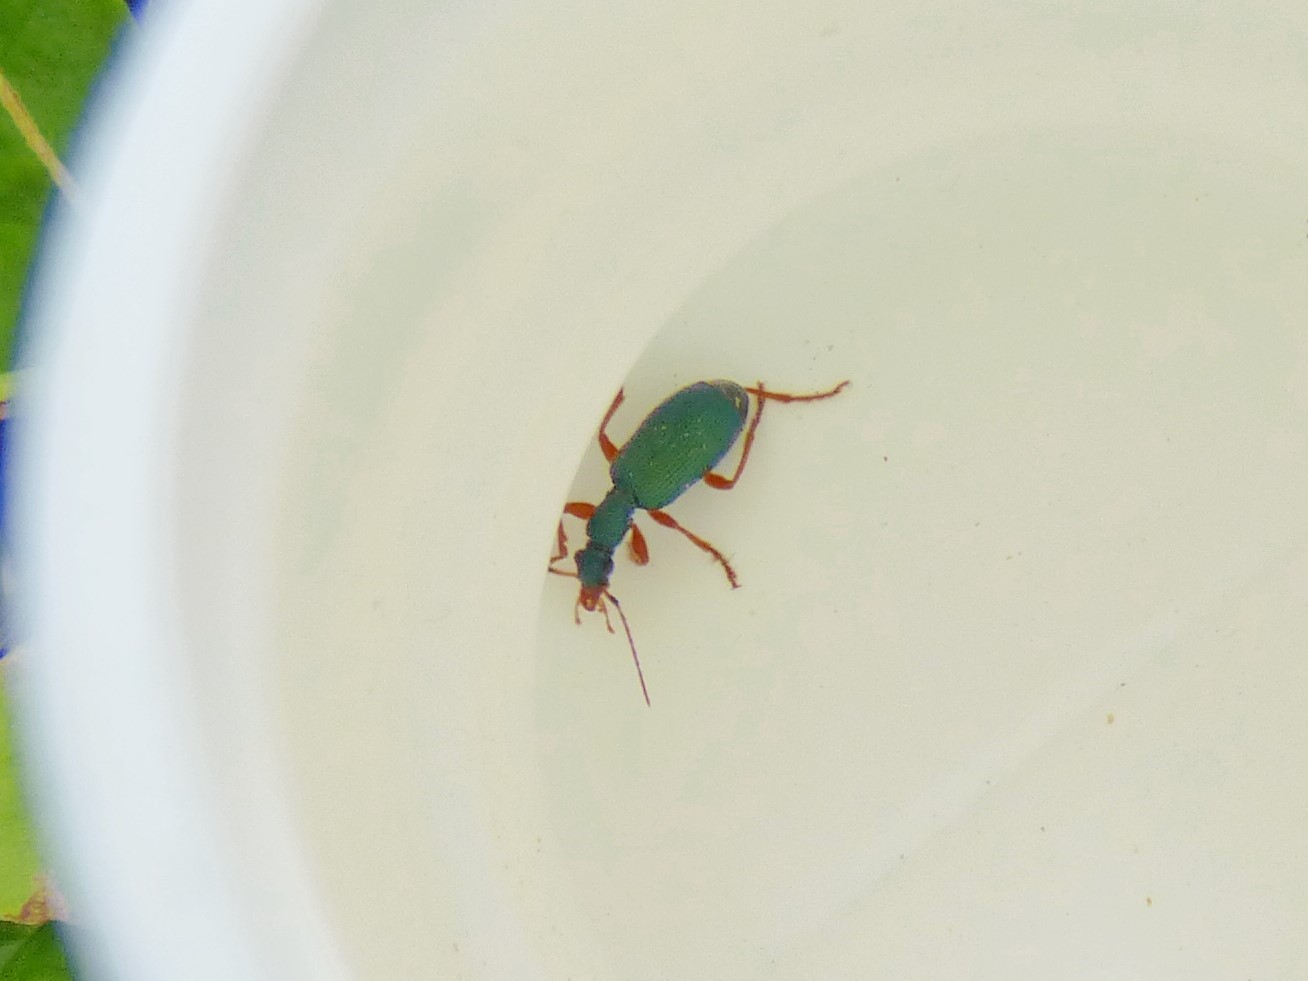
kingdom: Animalia
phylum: Arthropoda
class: Insecta
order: Coleoptera
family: Carabidae
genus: Drypta
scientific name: Drypta dentata
